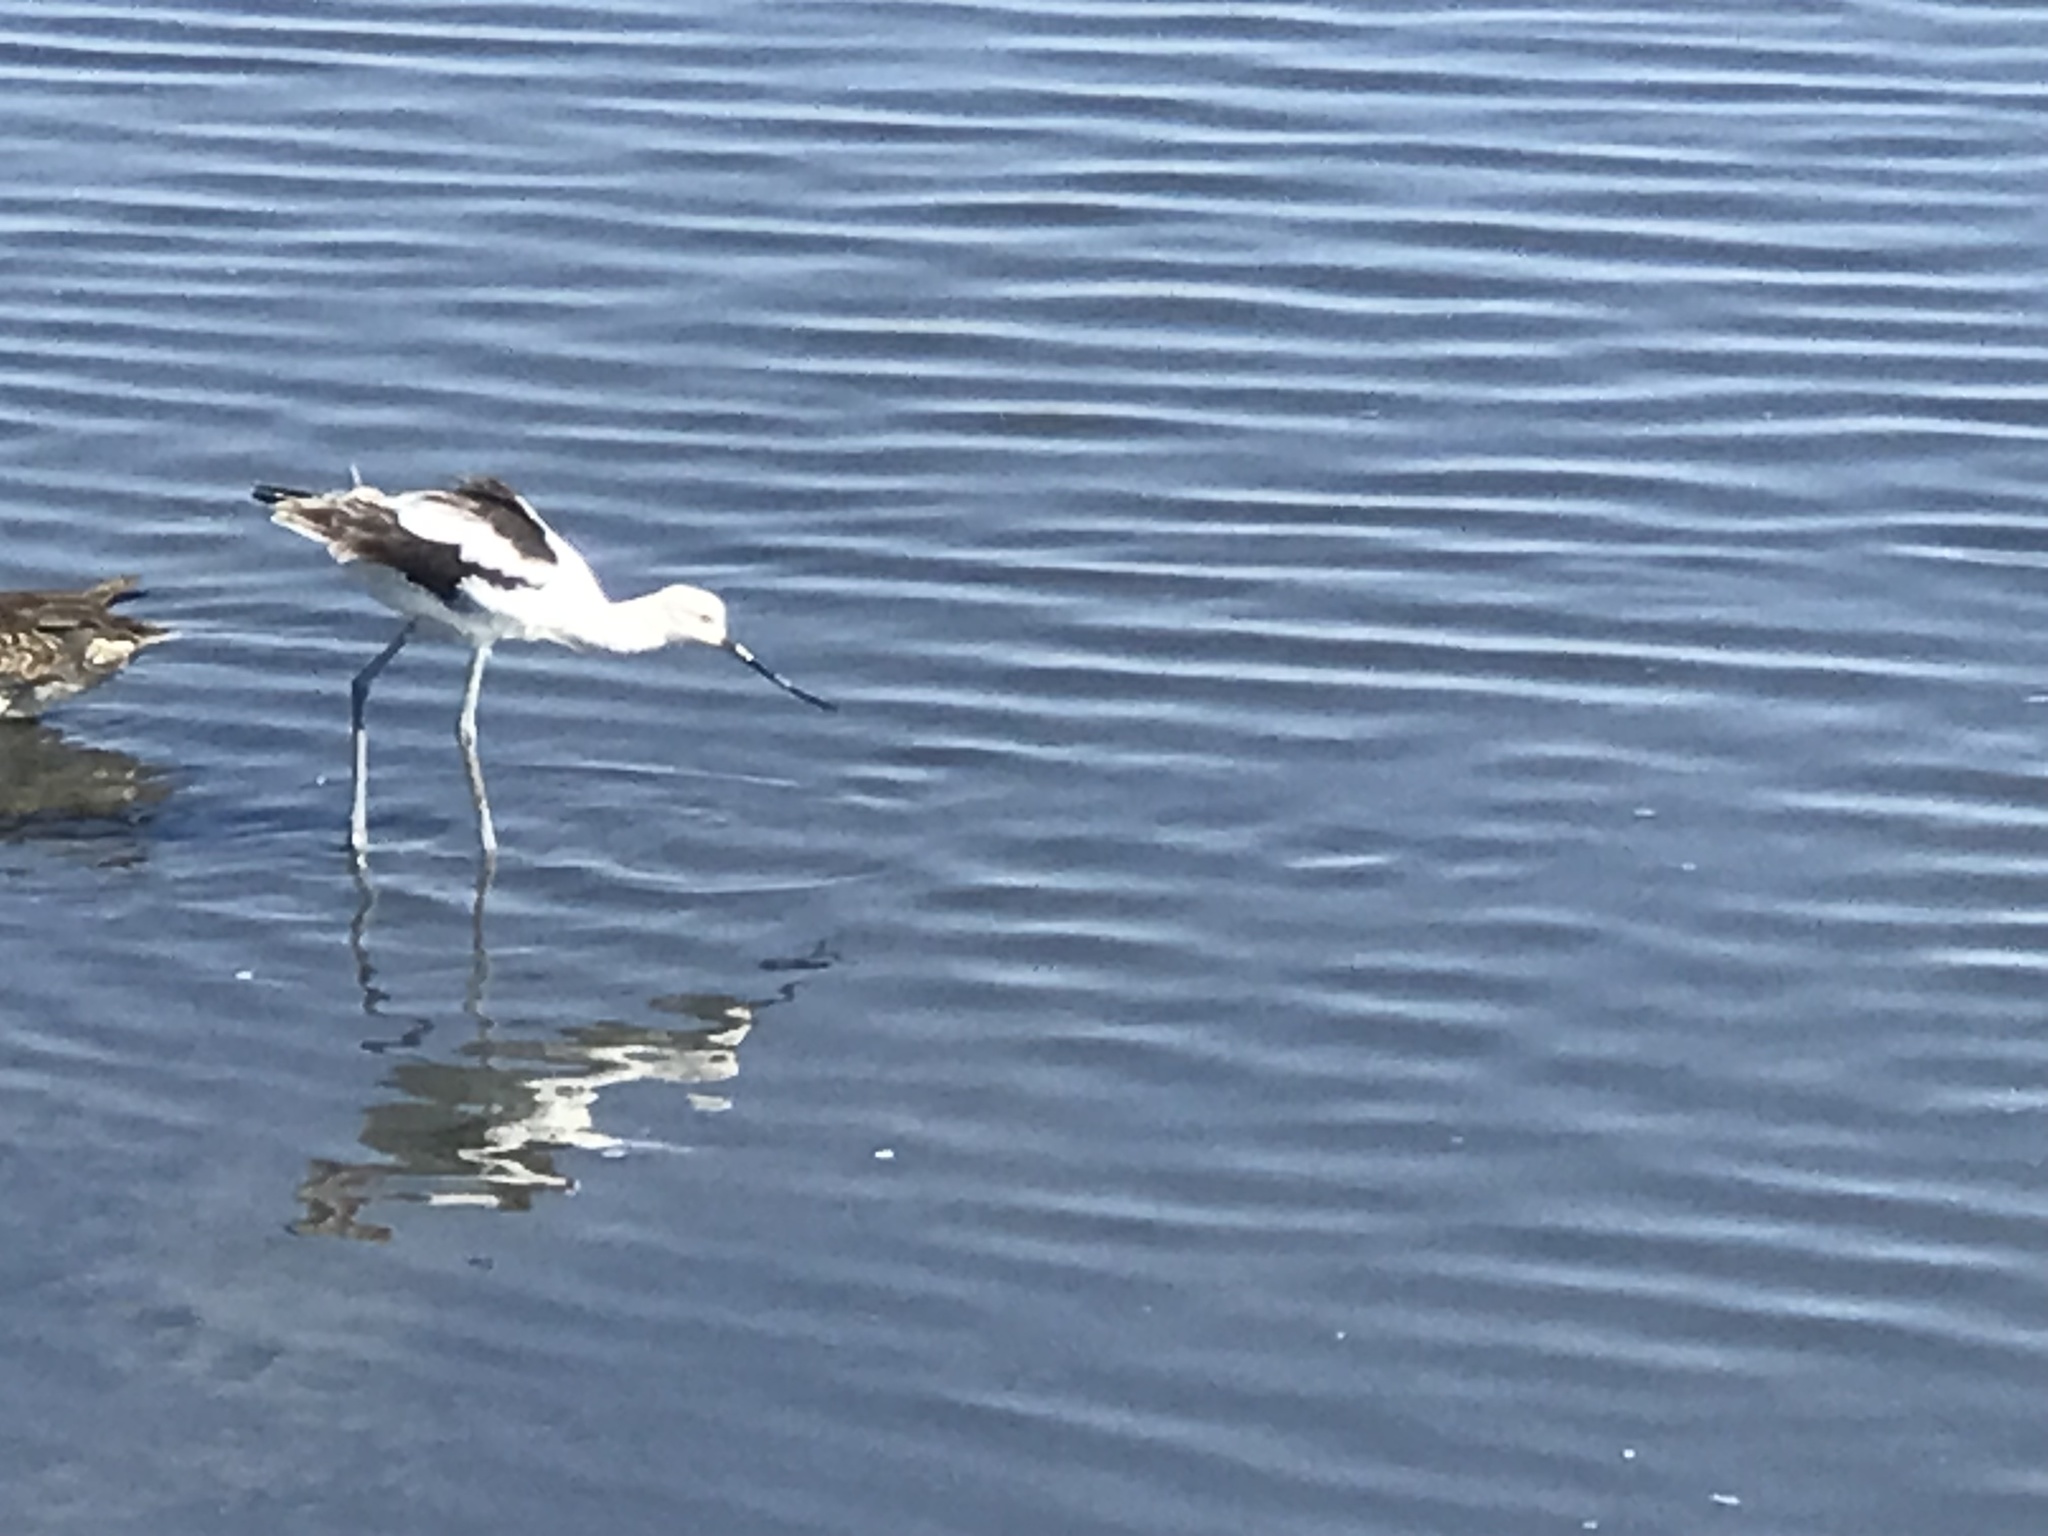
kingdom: Animalia
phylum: Chordata
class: Aves
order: Charadriiformes
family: Recurvirostridae
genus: Recurvirostra
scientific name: Recurvirostra americana
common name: American avocet
